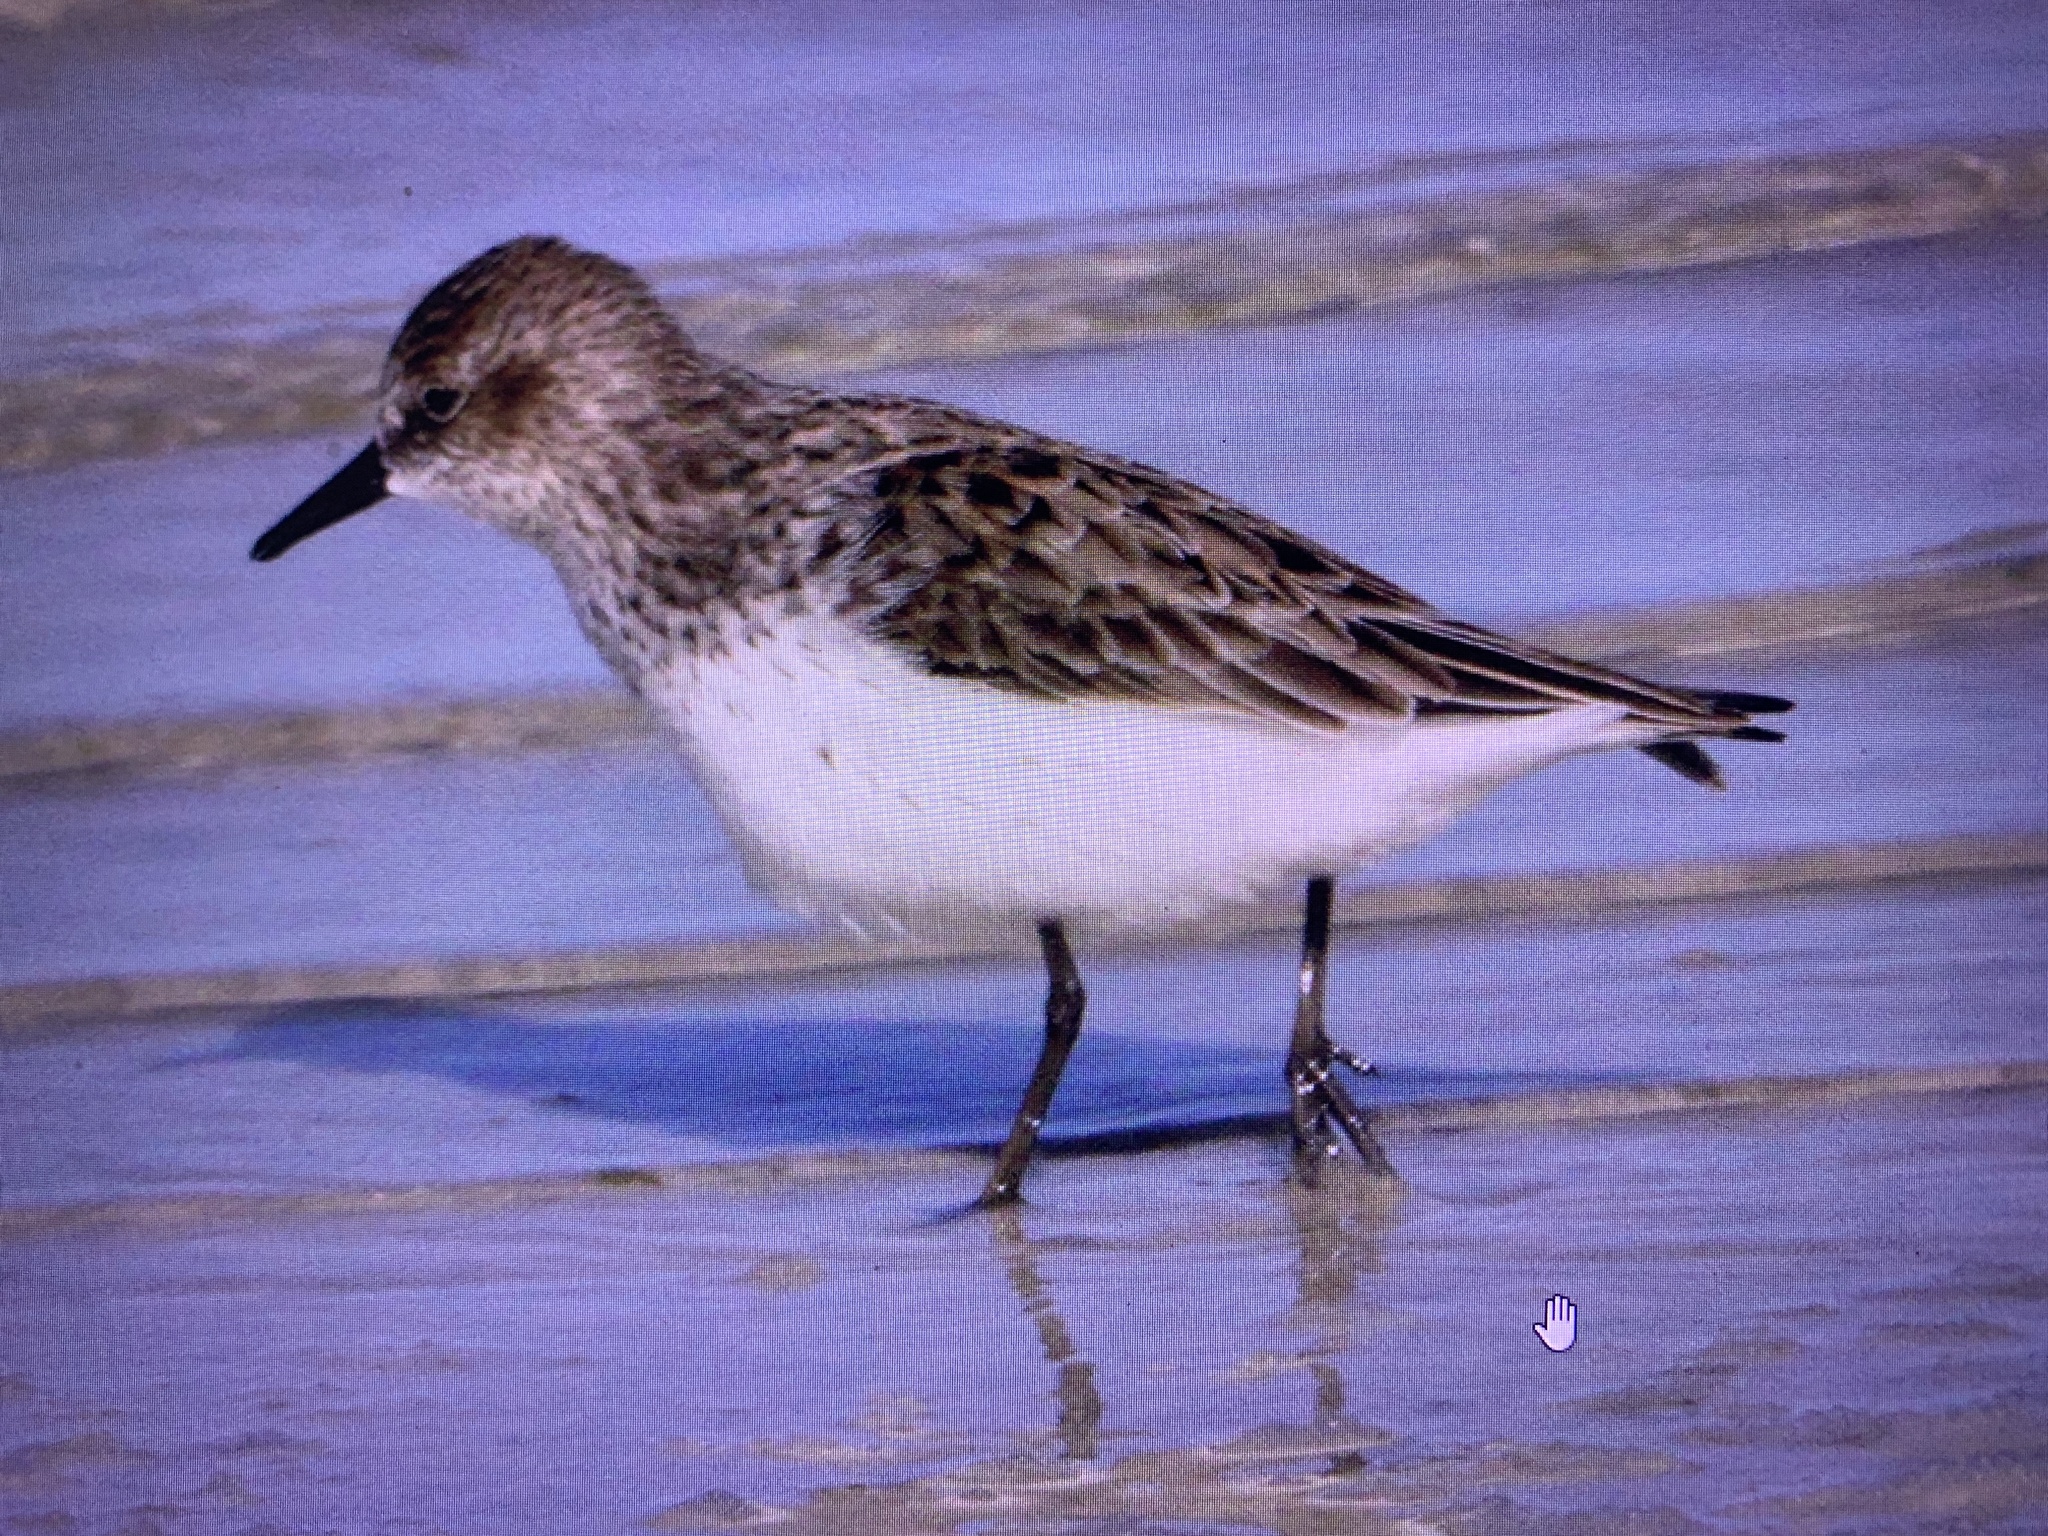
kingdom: Animalia
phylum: Chordata
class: Aves
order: Charadriiformes
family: Scolopacidae
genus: Calidris
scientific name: Calidris pusilla
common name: Semipalmated sandpiper
